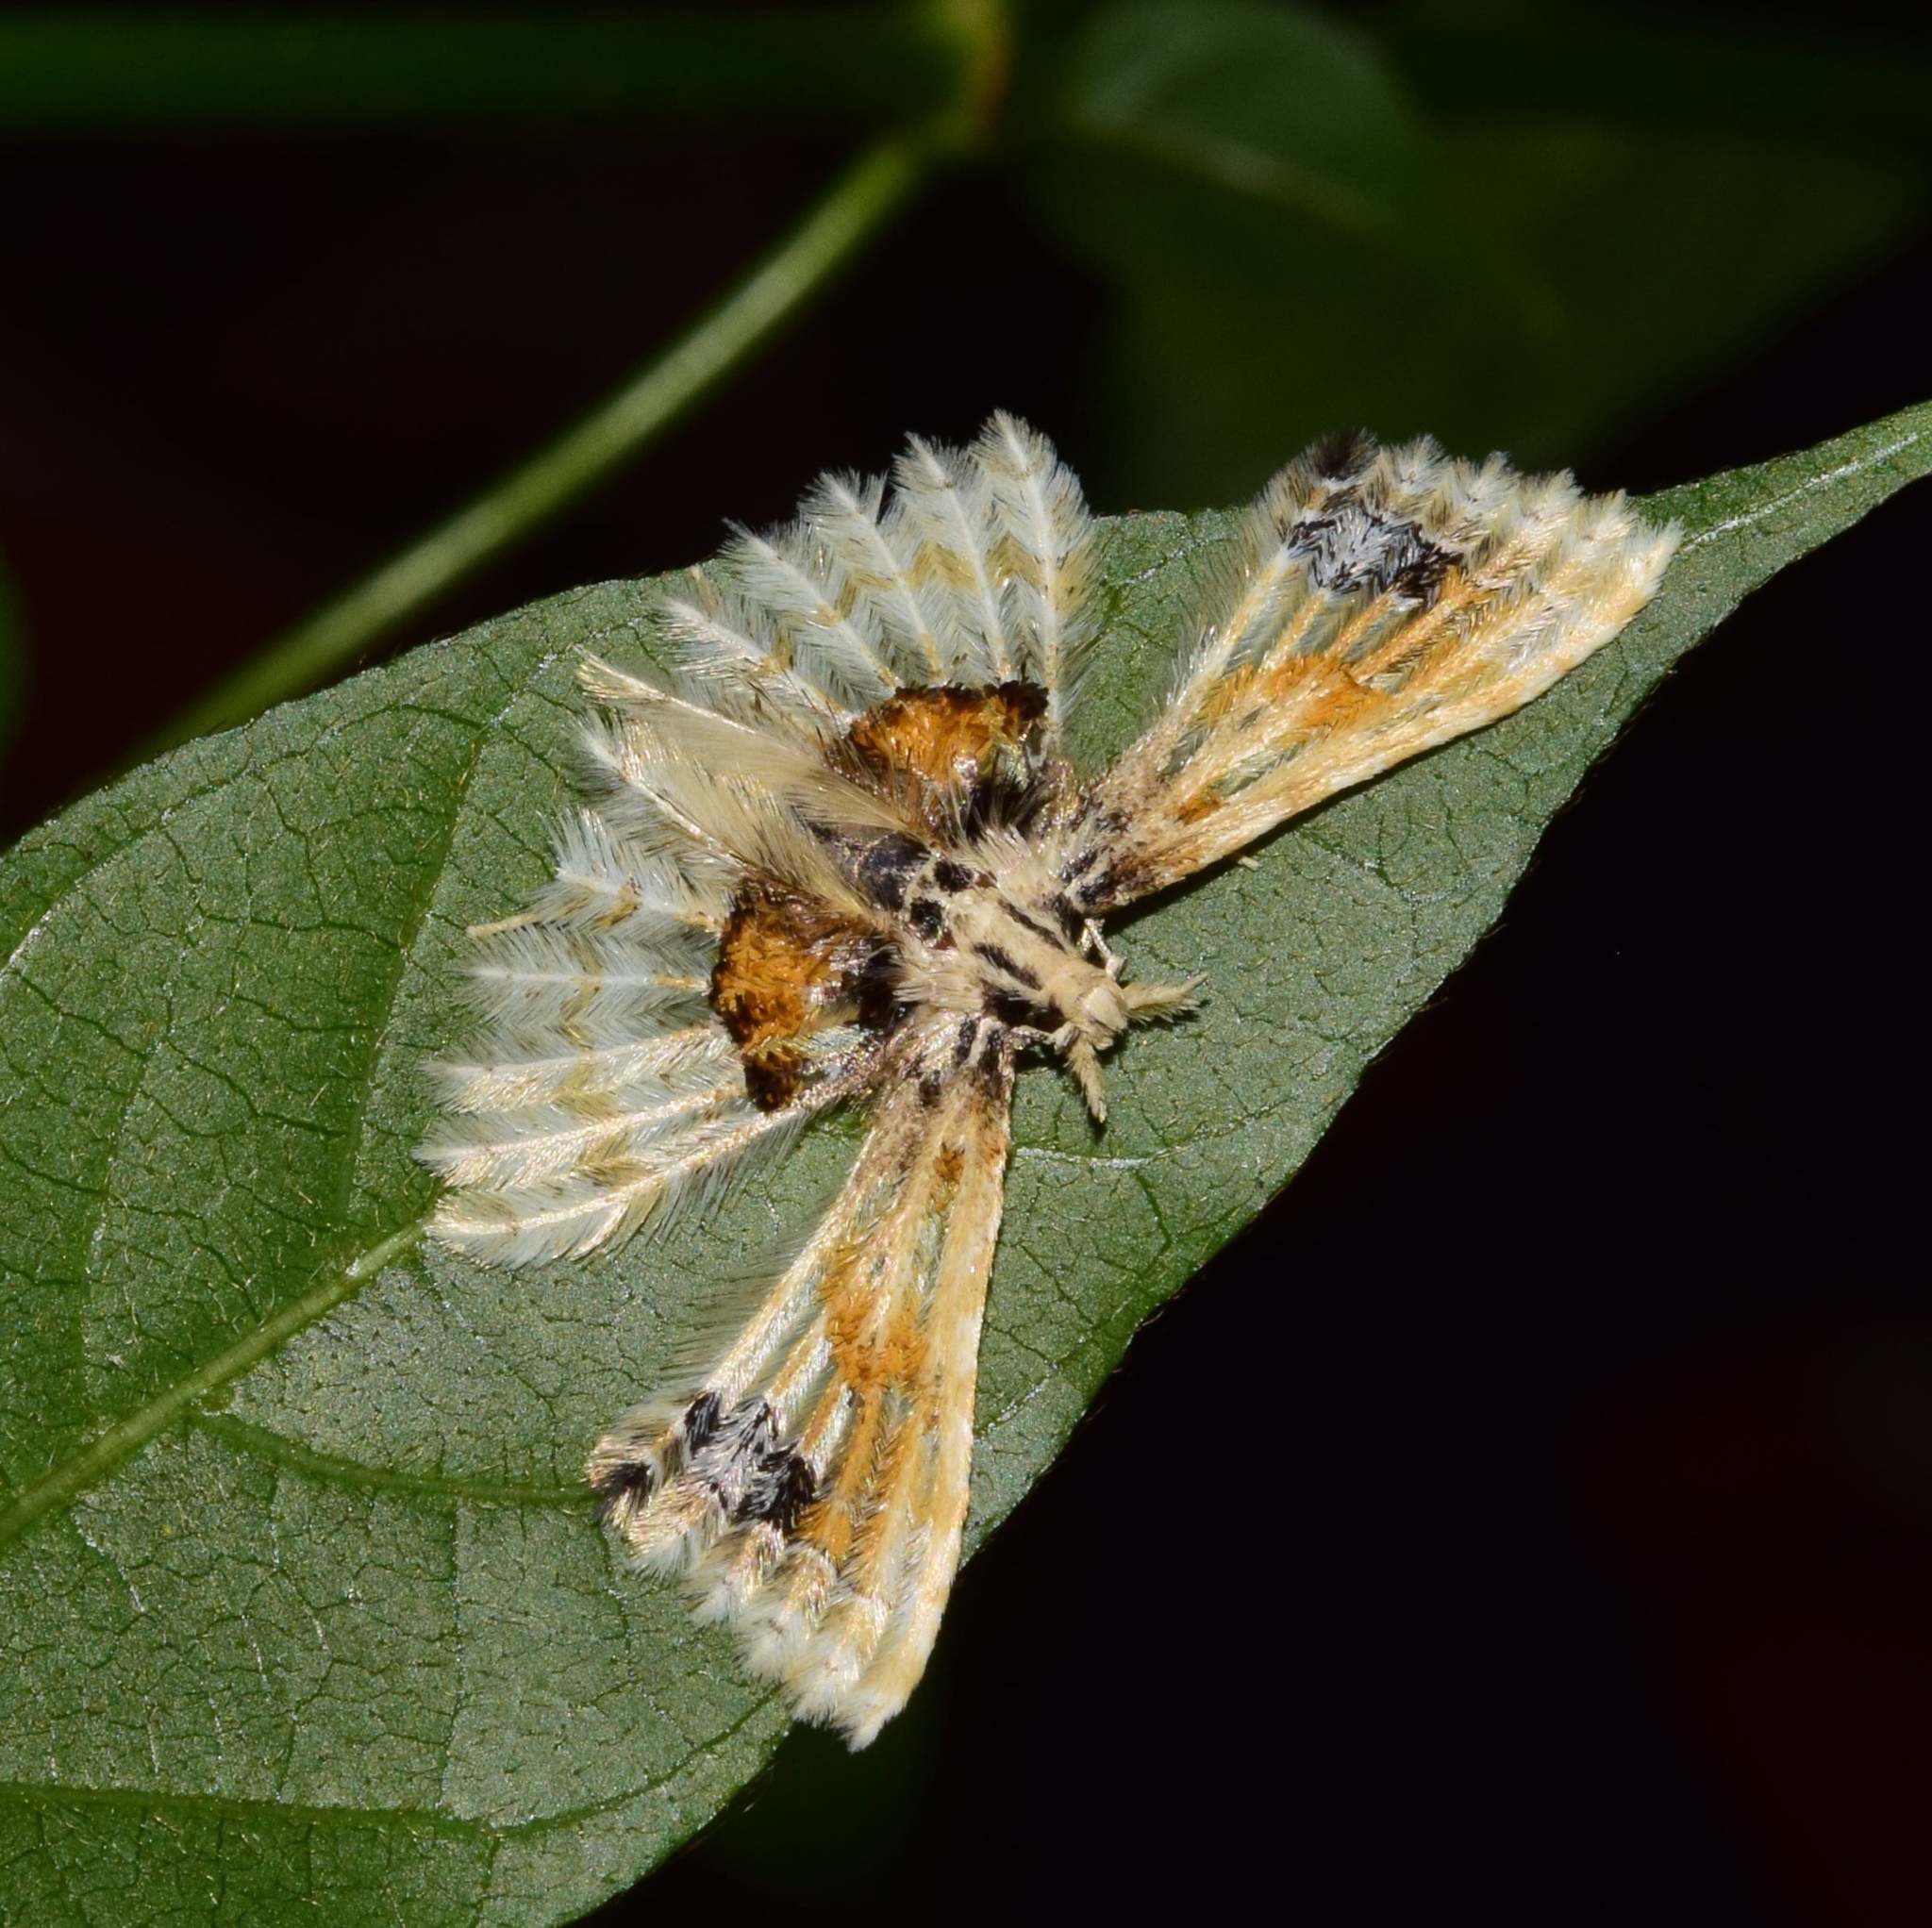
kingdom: Animalia
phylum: Arthropoda
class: Insecta
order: Lepidoptera
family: Alucitidae
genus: Alucita
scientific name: Alucita phanerarcha
